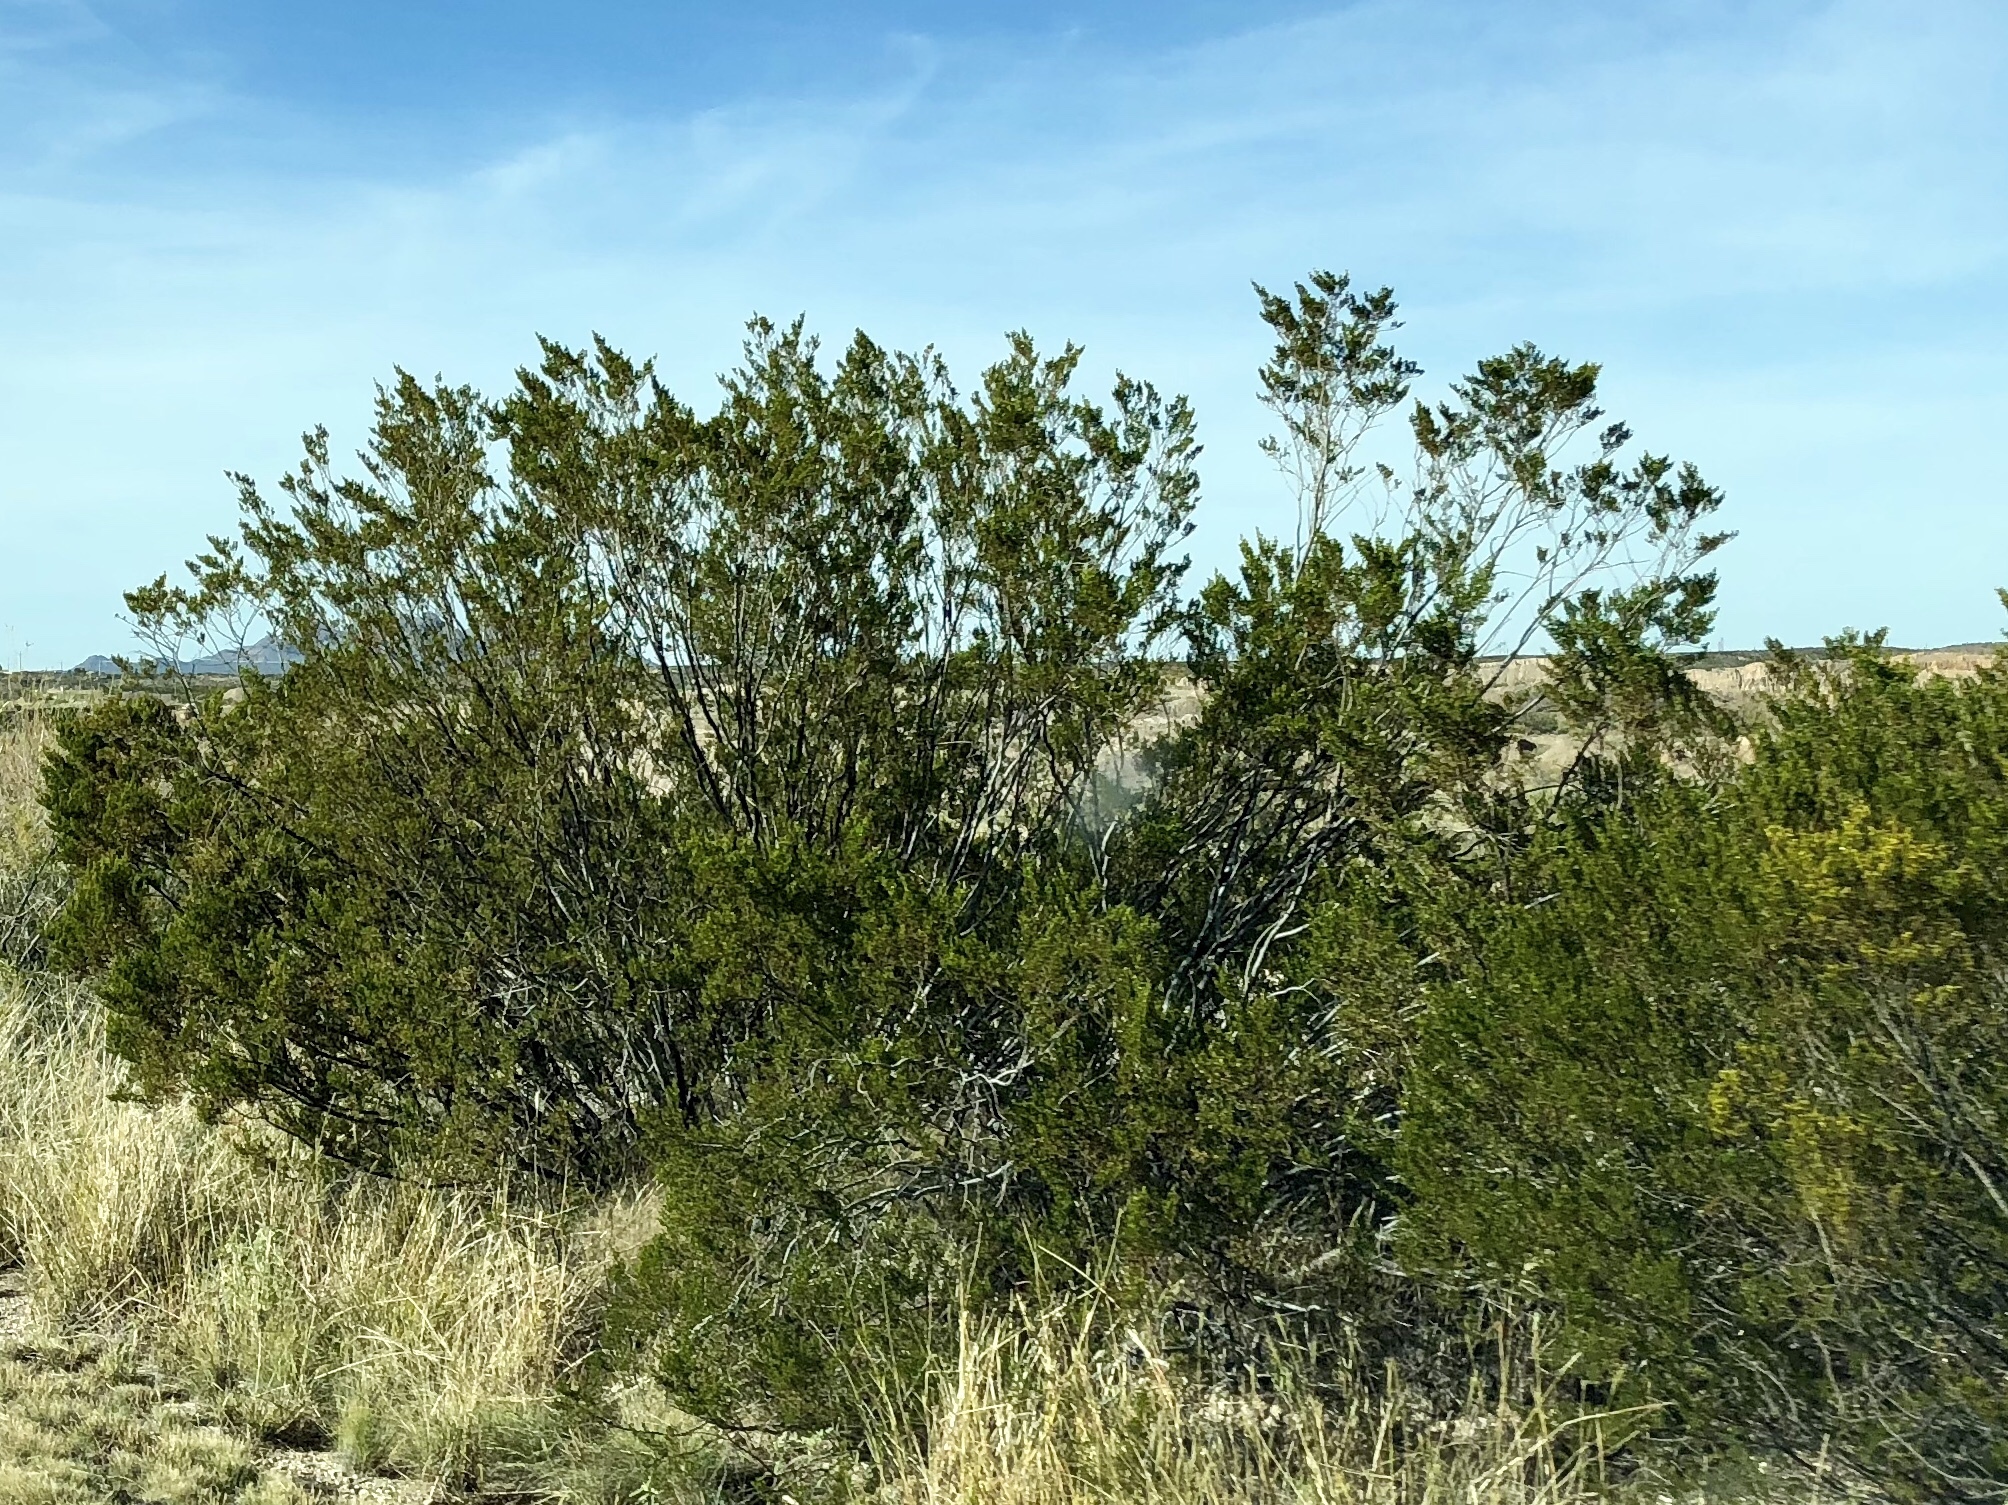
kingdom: Plantae
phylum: Tracheophyta
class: Magnoliopsida
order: Zygophyllales
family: Zygophyllaceae
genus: Larrea
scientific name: Larrea tridentata
